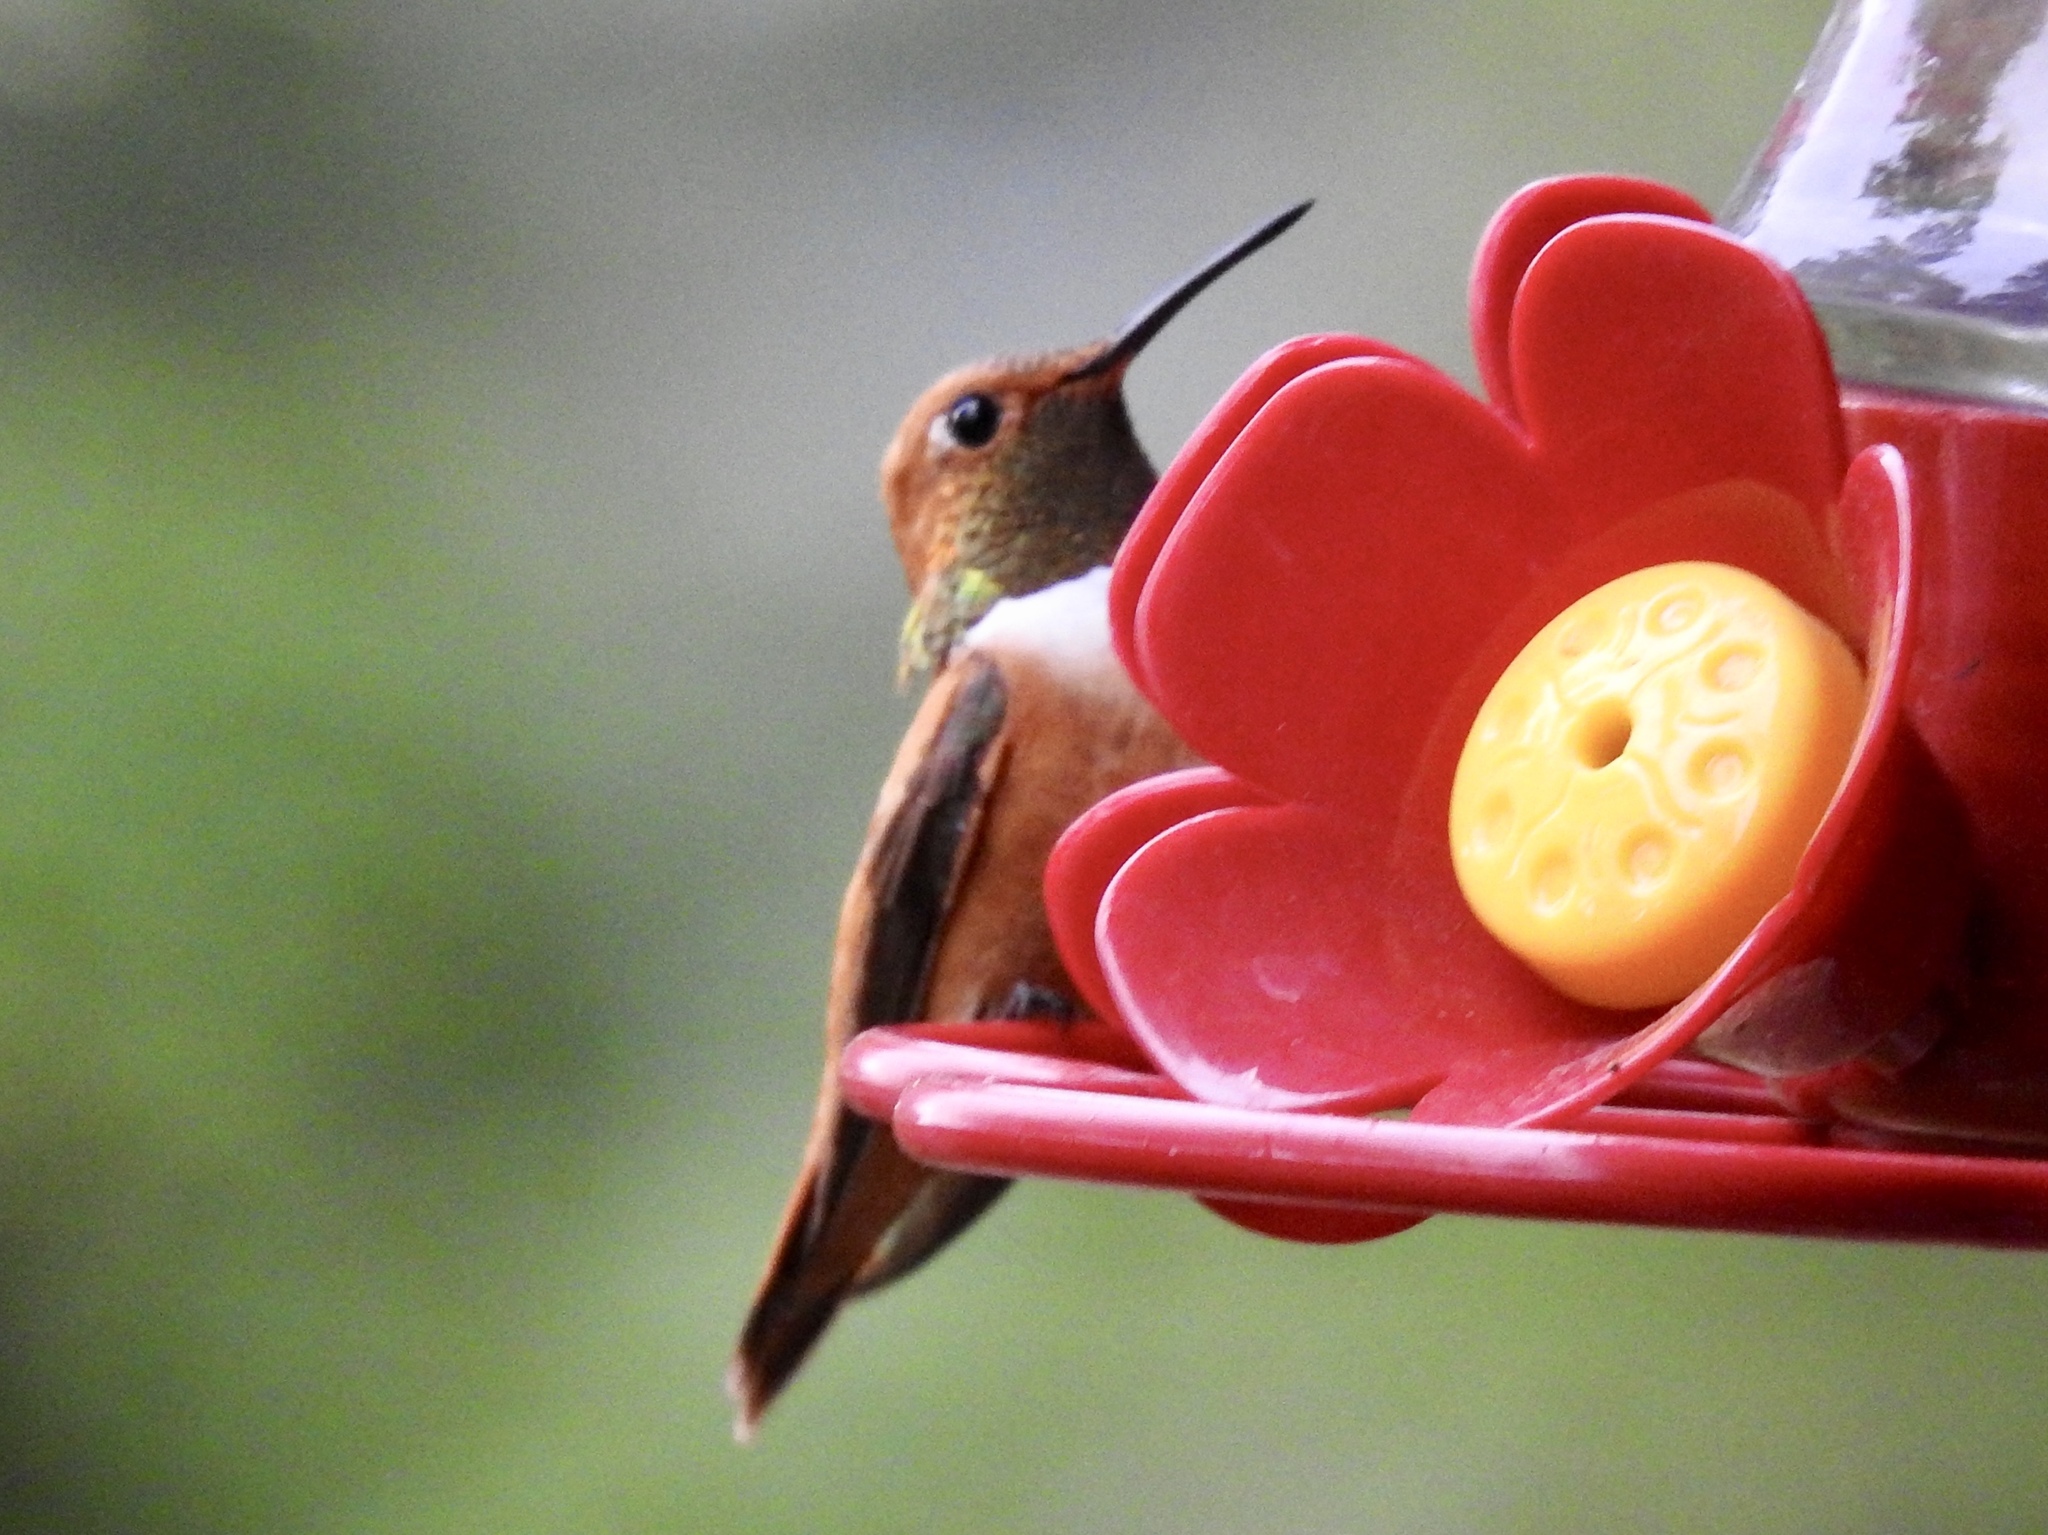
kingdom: Animalia
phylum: Chordata
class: Aves
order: Apodiformes
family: Trochilidae
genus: Selasphorus
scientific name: Selasphorus rufus
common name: Rufous hummingbird
